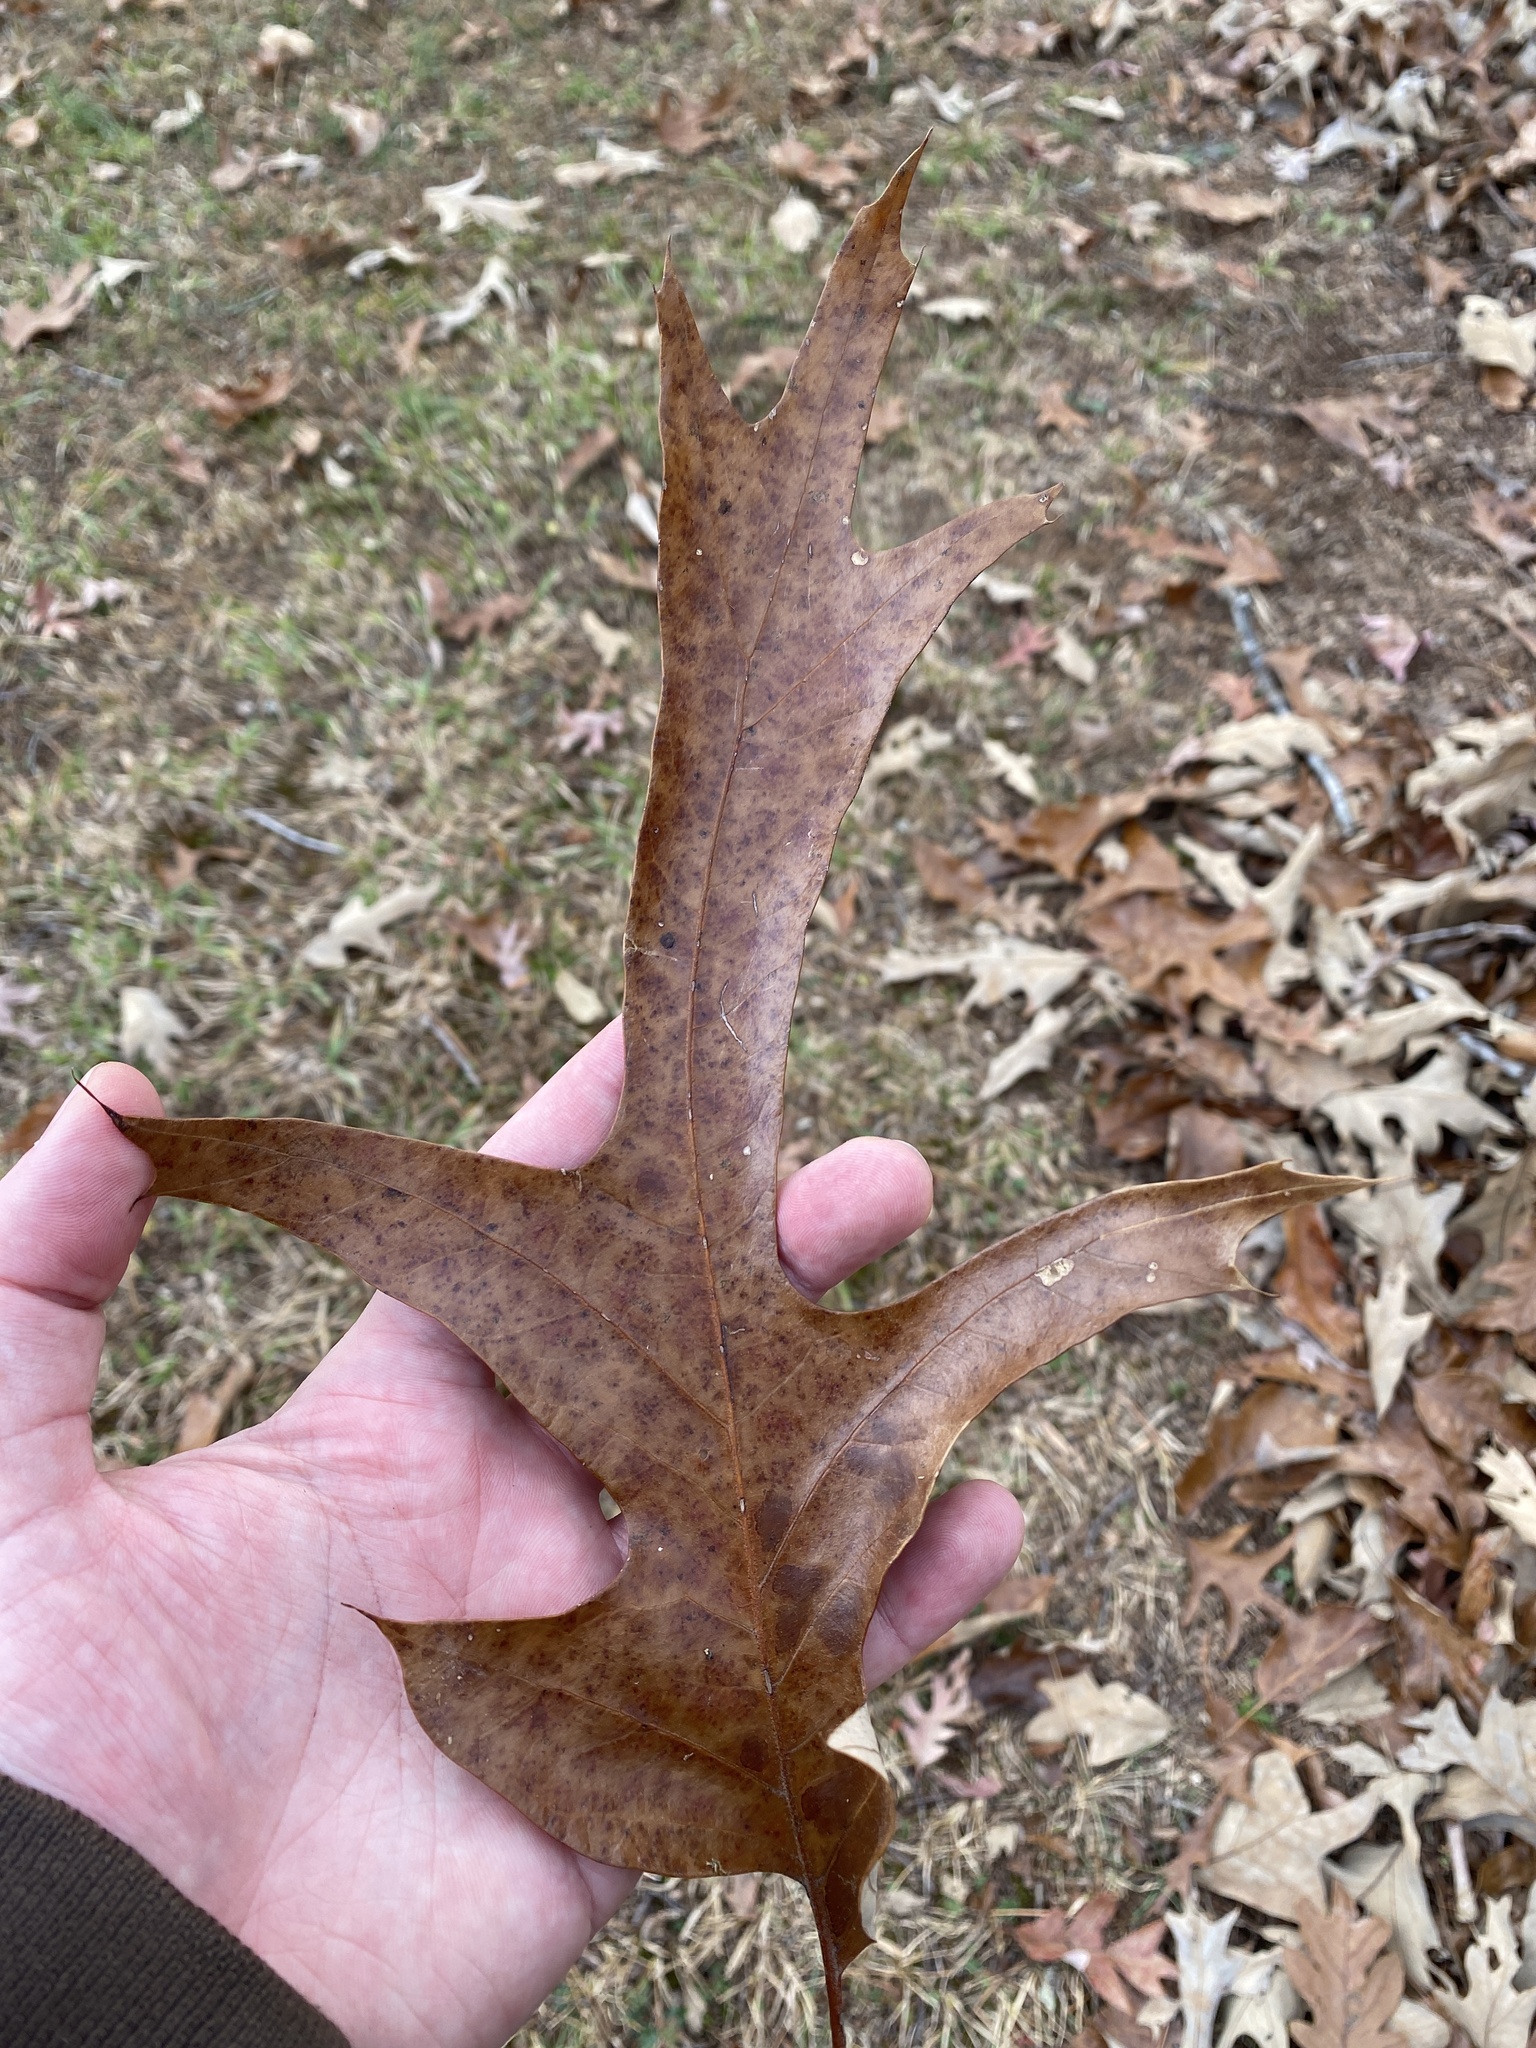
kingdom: Plantae
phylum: Tracheophyta
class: Magnoliopsida
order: Fagales
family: Fagaceae
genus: Quercus
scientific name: Quercus falcata
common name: Southern red oak
